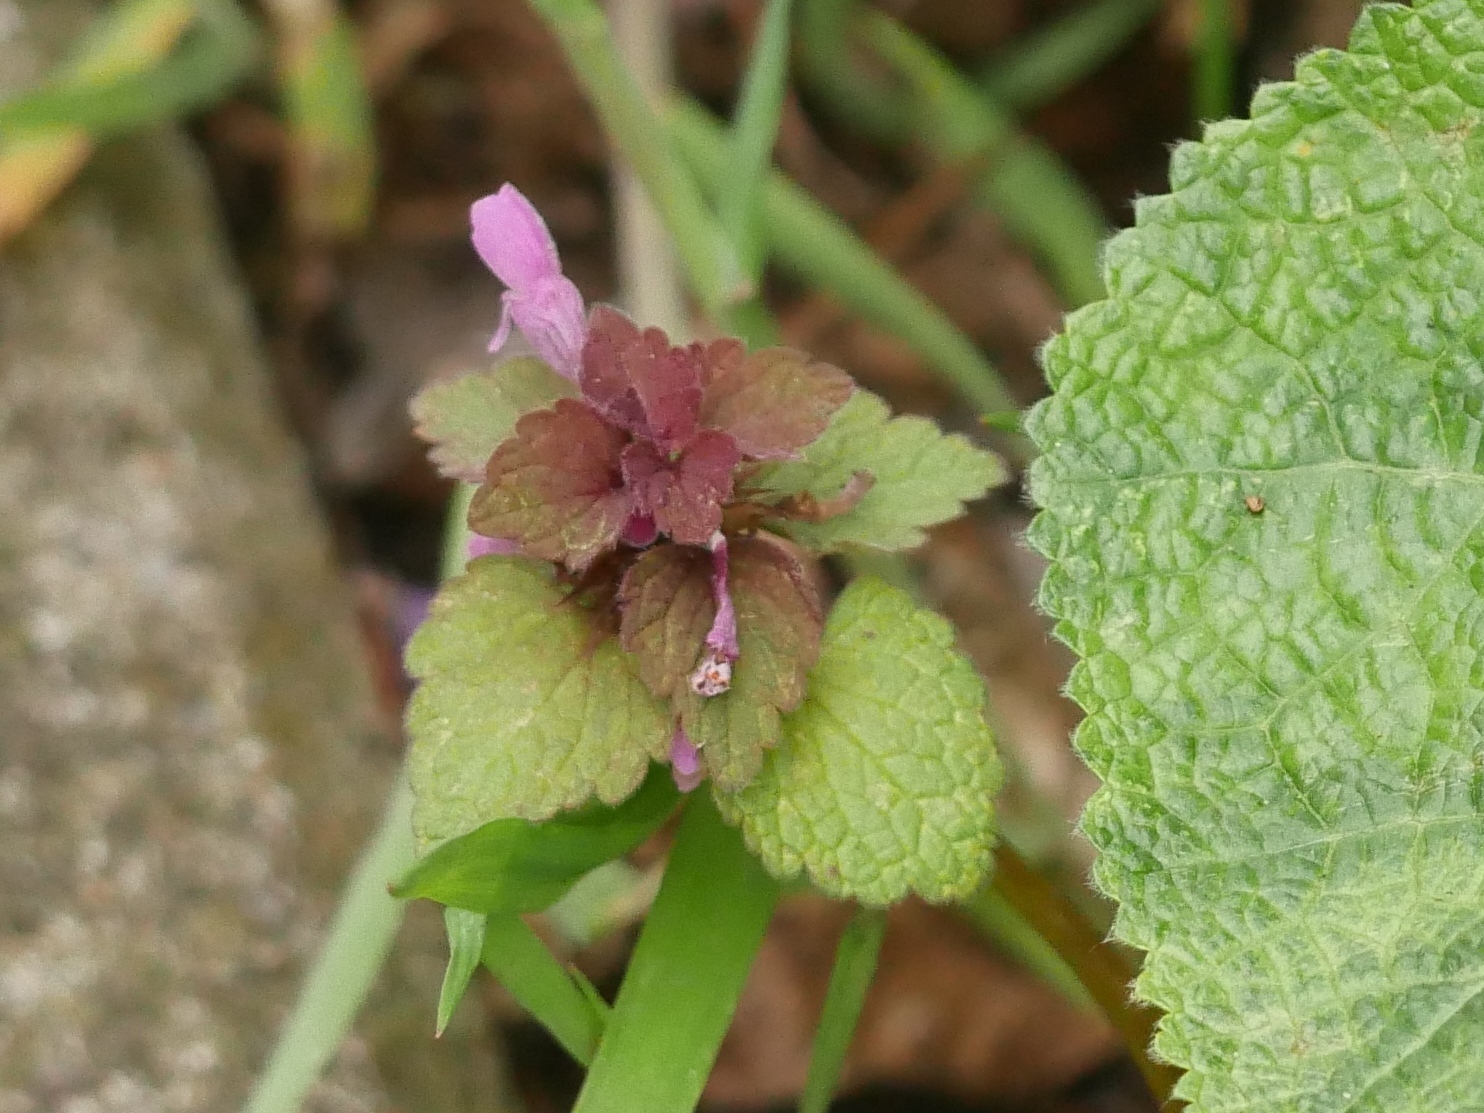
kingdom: Plantae
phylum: Tracheophyta
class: Magnoliopsida
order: Lamiales
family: Lamiaceae
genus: Lamium
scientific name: Lamium purpureum
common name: Red dead-nettle
